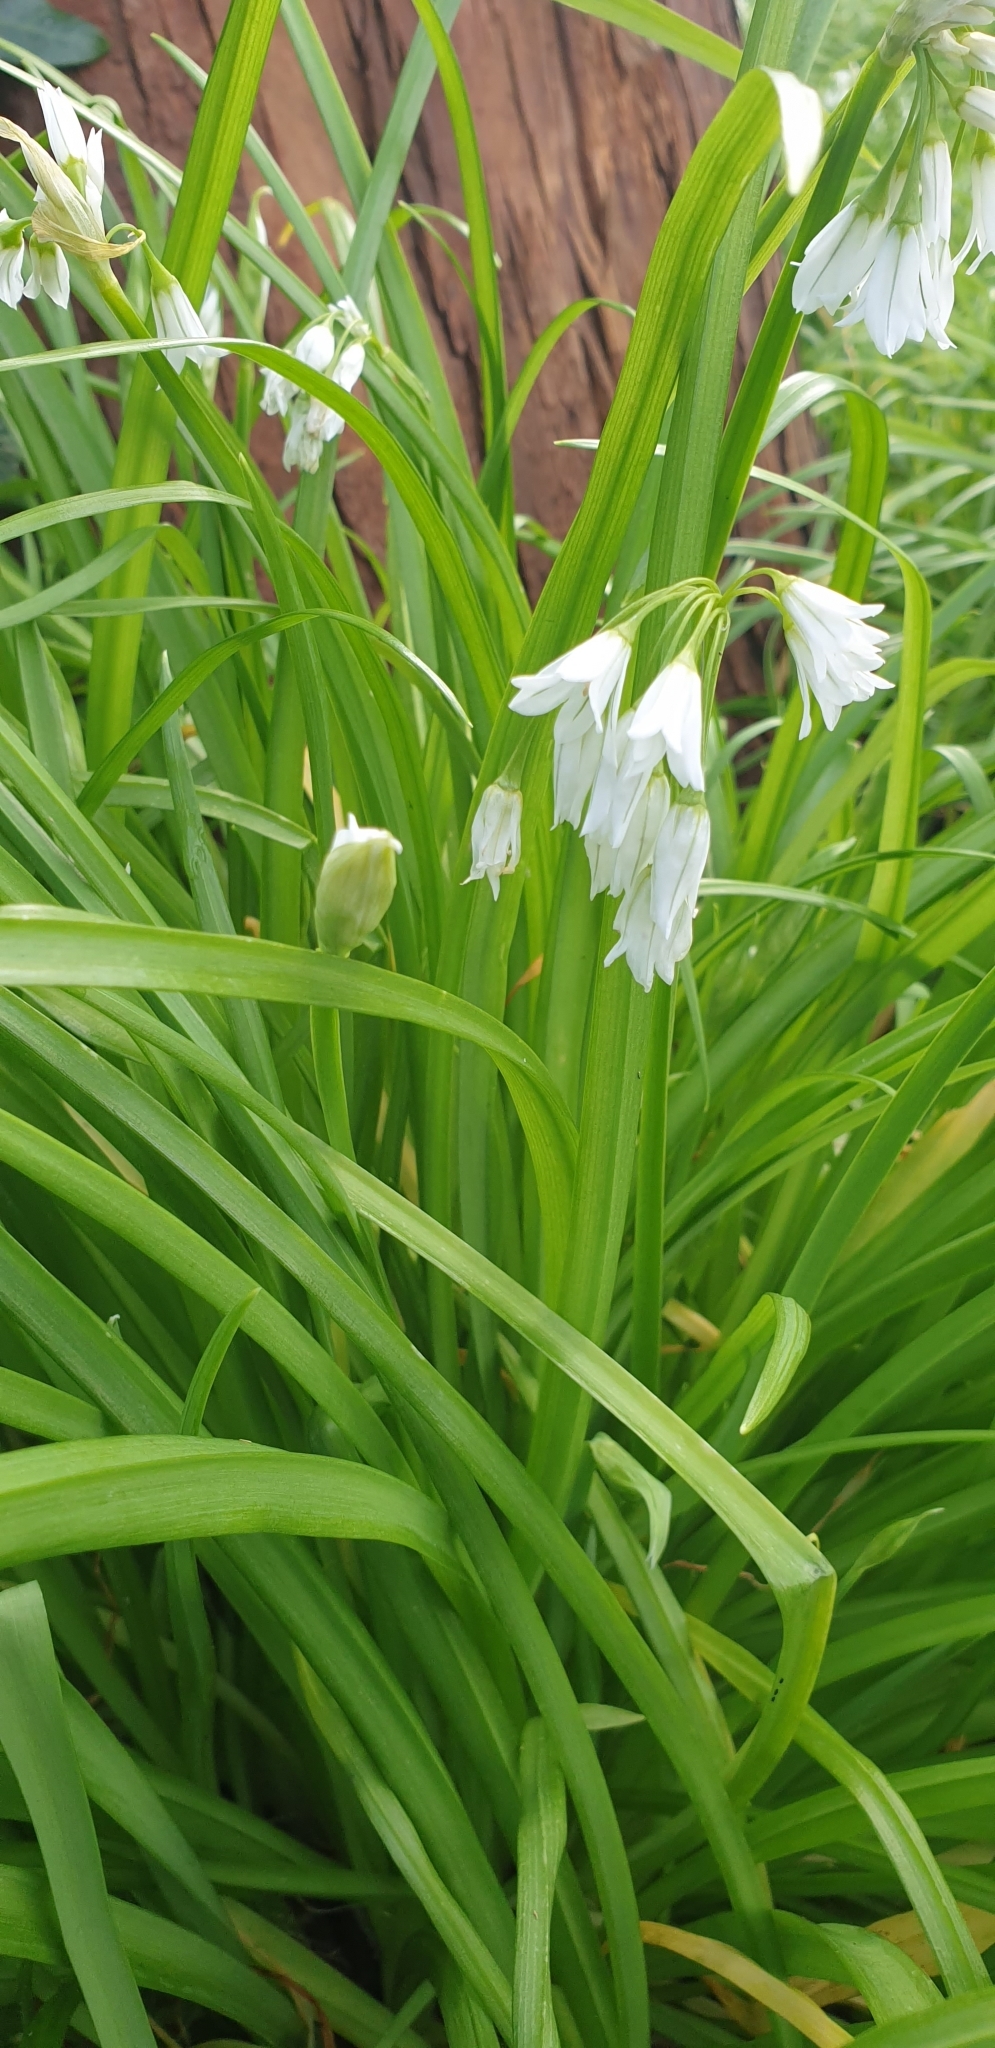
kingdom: Plantae
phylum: Tracheophyta
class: Liliopsida
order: Asparagales
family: Amaryllidaceae
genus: Allium
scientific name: Allium triquetrum
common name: Three-cornered garlic
